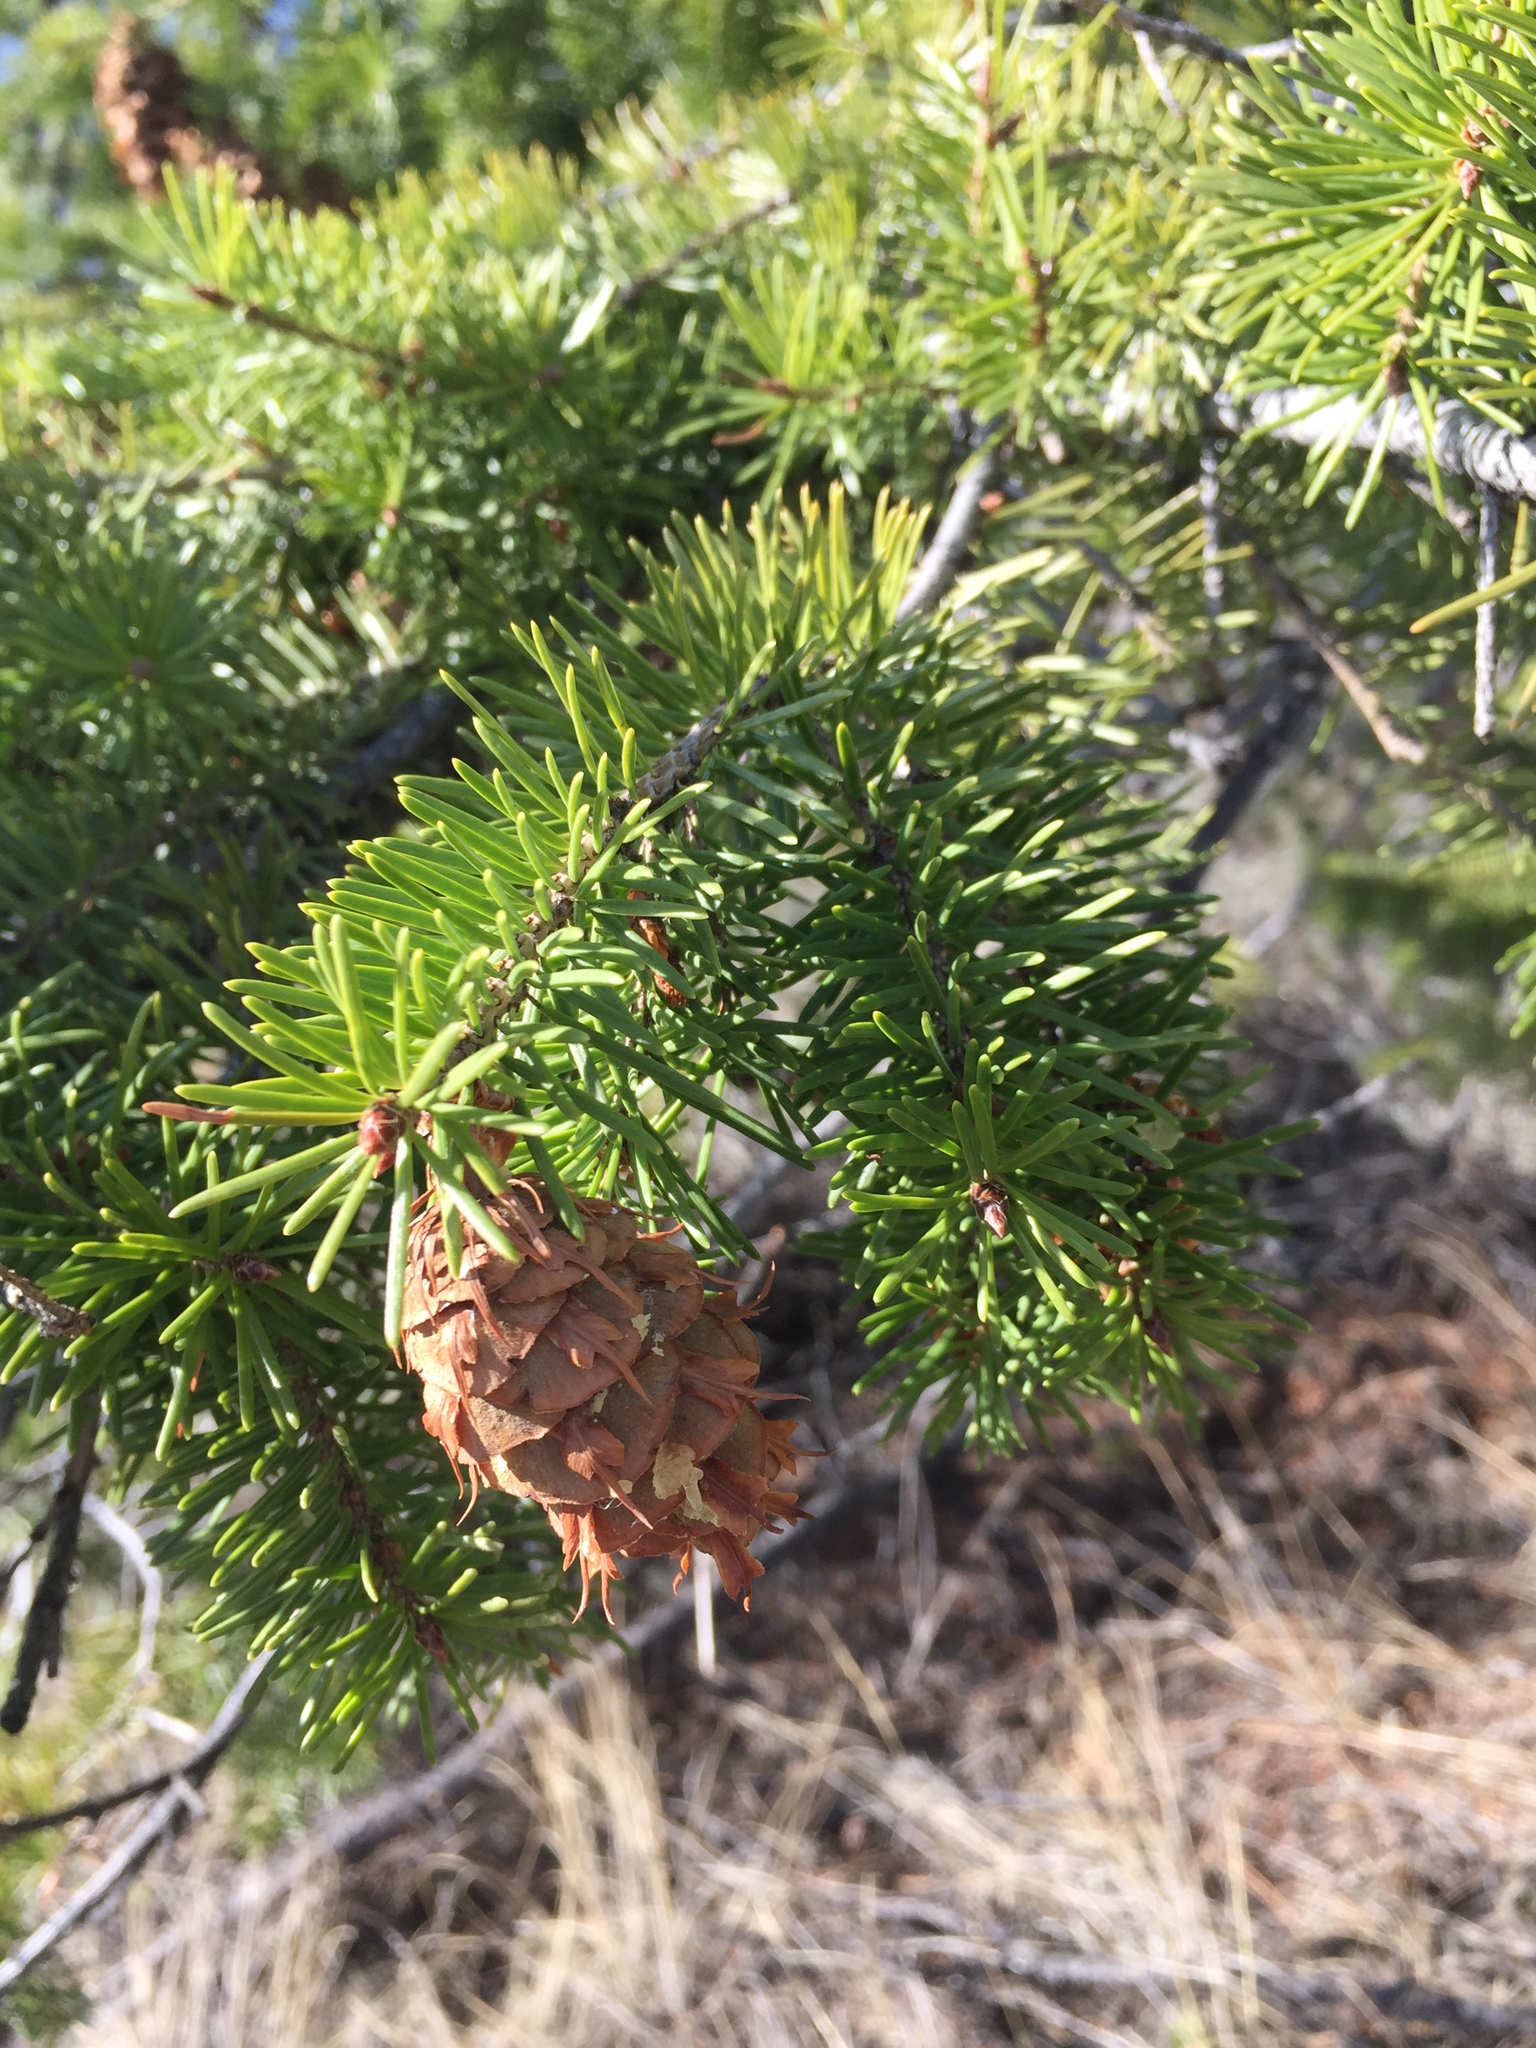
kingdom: Plantae
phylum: Tracheophyta
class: Pinopsida
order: Pinales
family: Pinaceae
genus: Pseudotsuga
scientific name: Pseudotsuga menziesii
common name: Douglas fir
